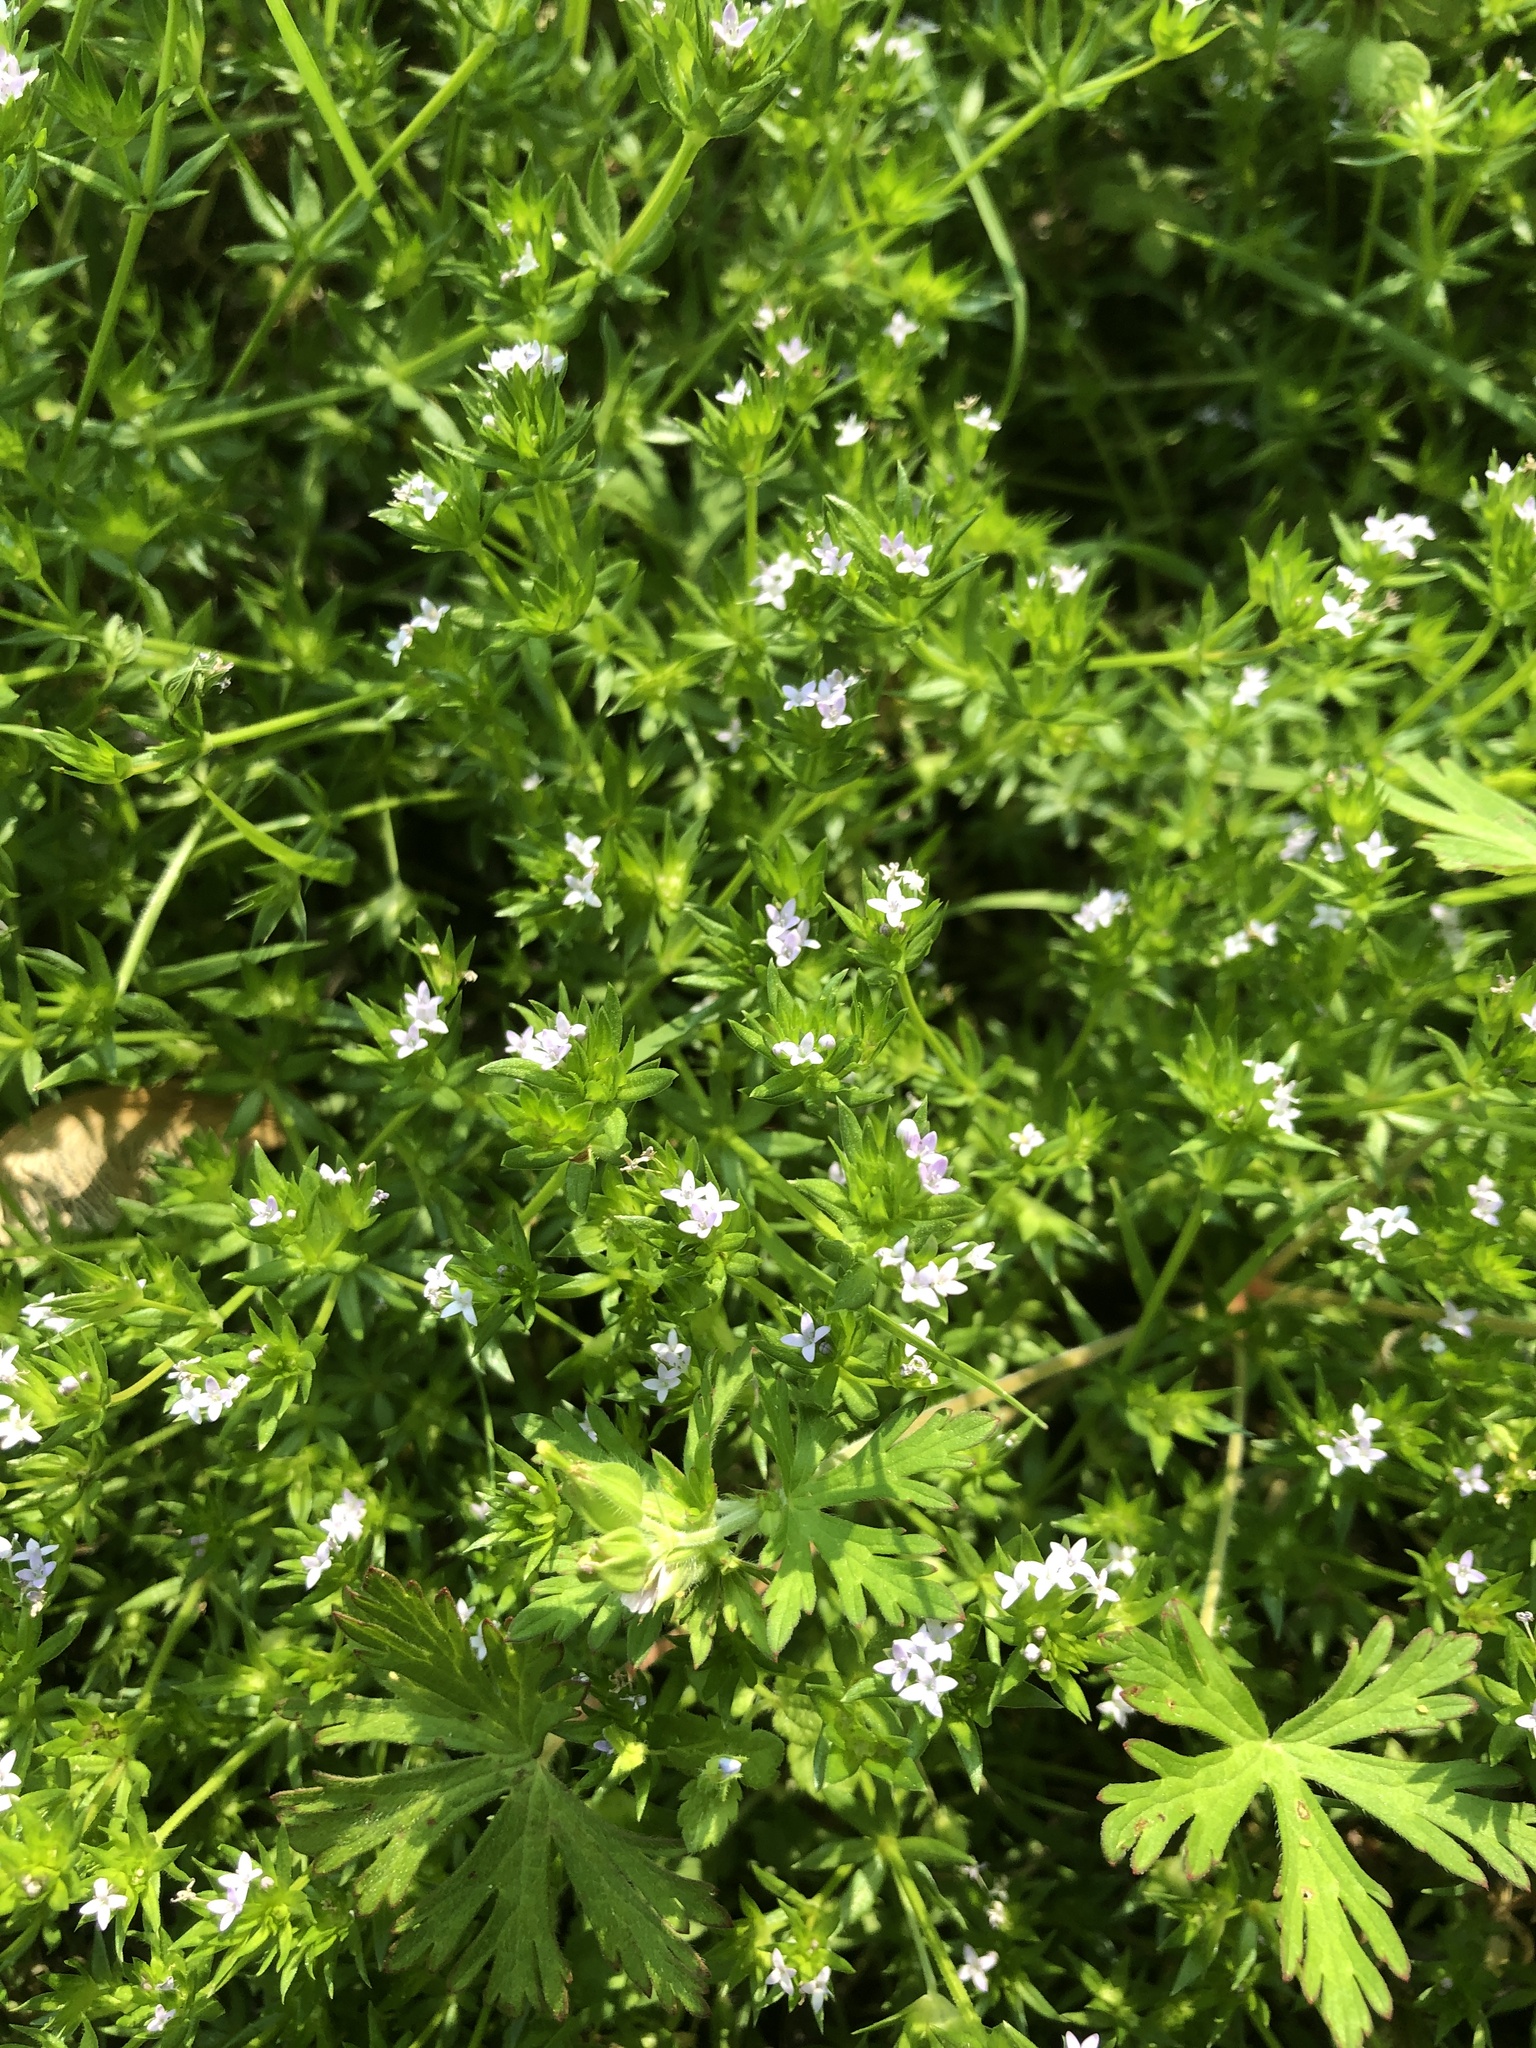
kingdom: Plantae
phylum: Tracheophyta
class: Magnoliopsida
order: Gentianales
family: Rubiaceae
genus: Sherardia
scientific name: Sherardia arvensis
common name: Field madder
